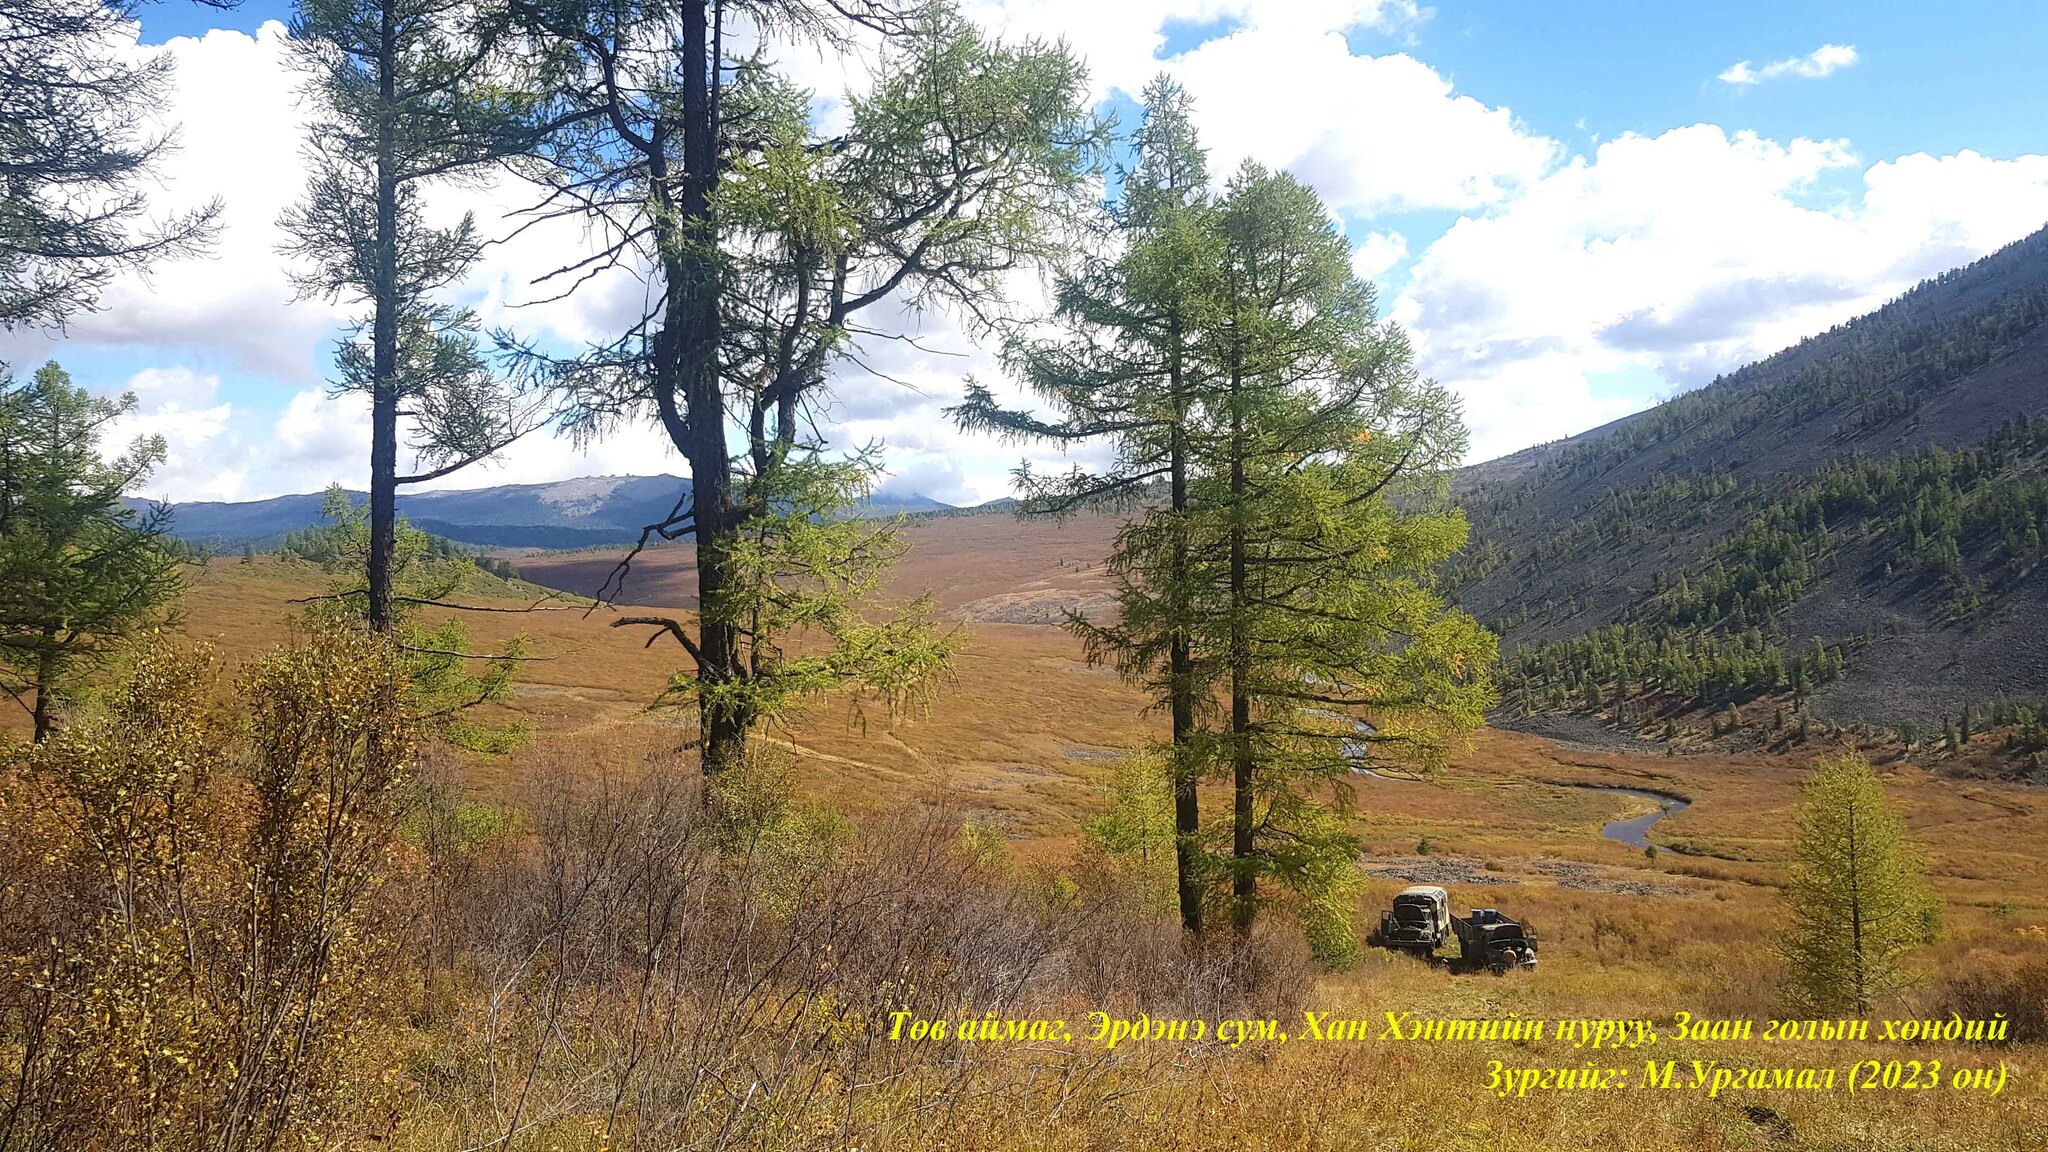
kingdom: Plantae
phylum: Tracheophyta
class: Pinopsida
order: Pinales
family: Pinaceae
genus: Larix
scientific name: Larix sibirica
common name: Siberian larch
